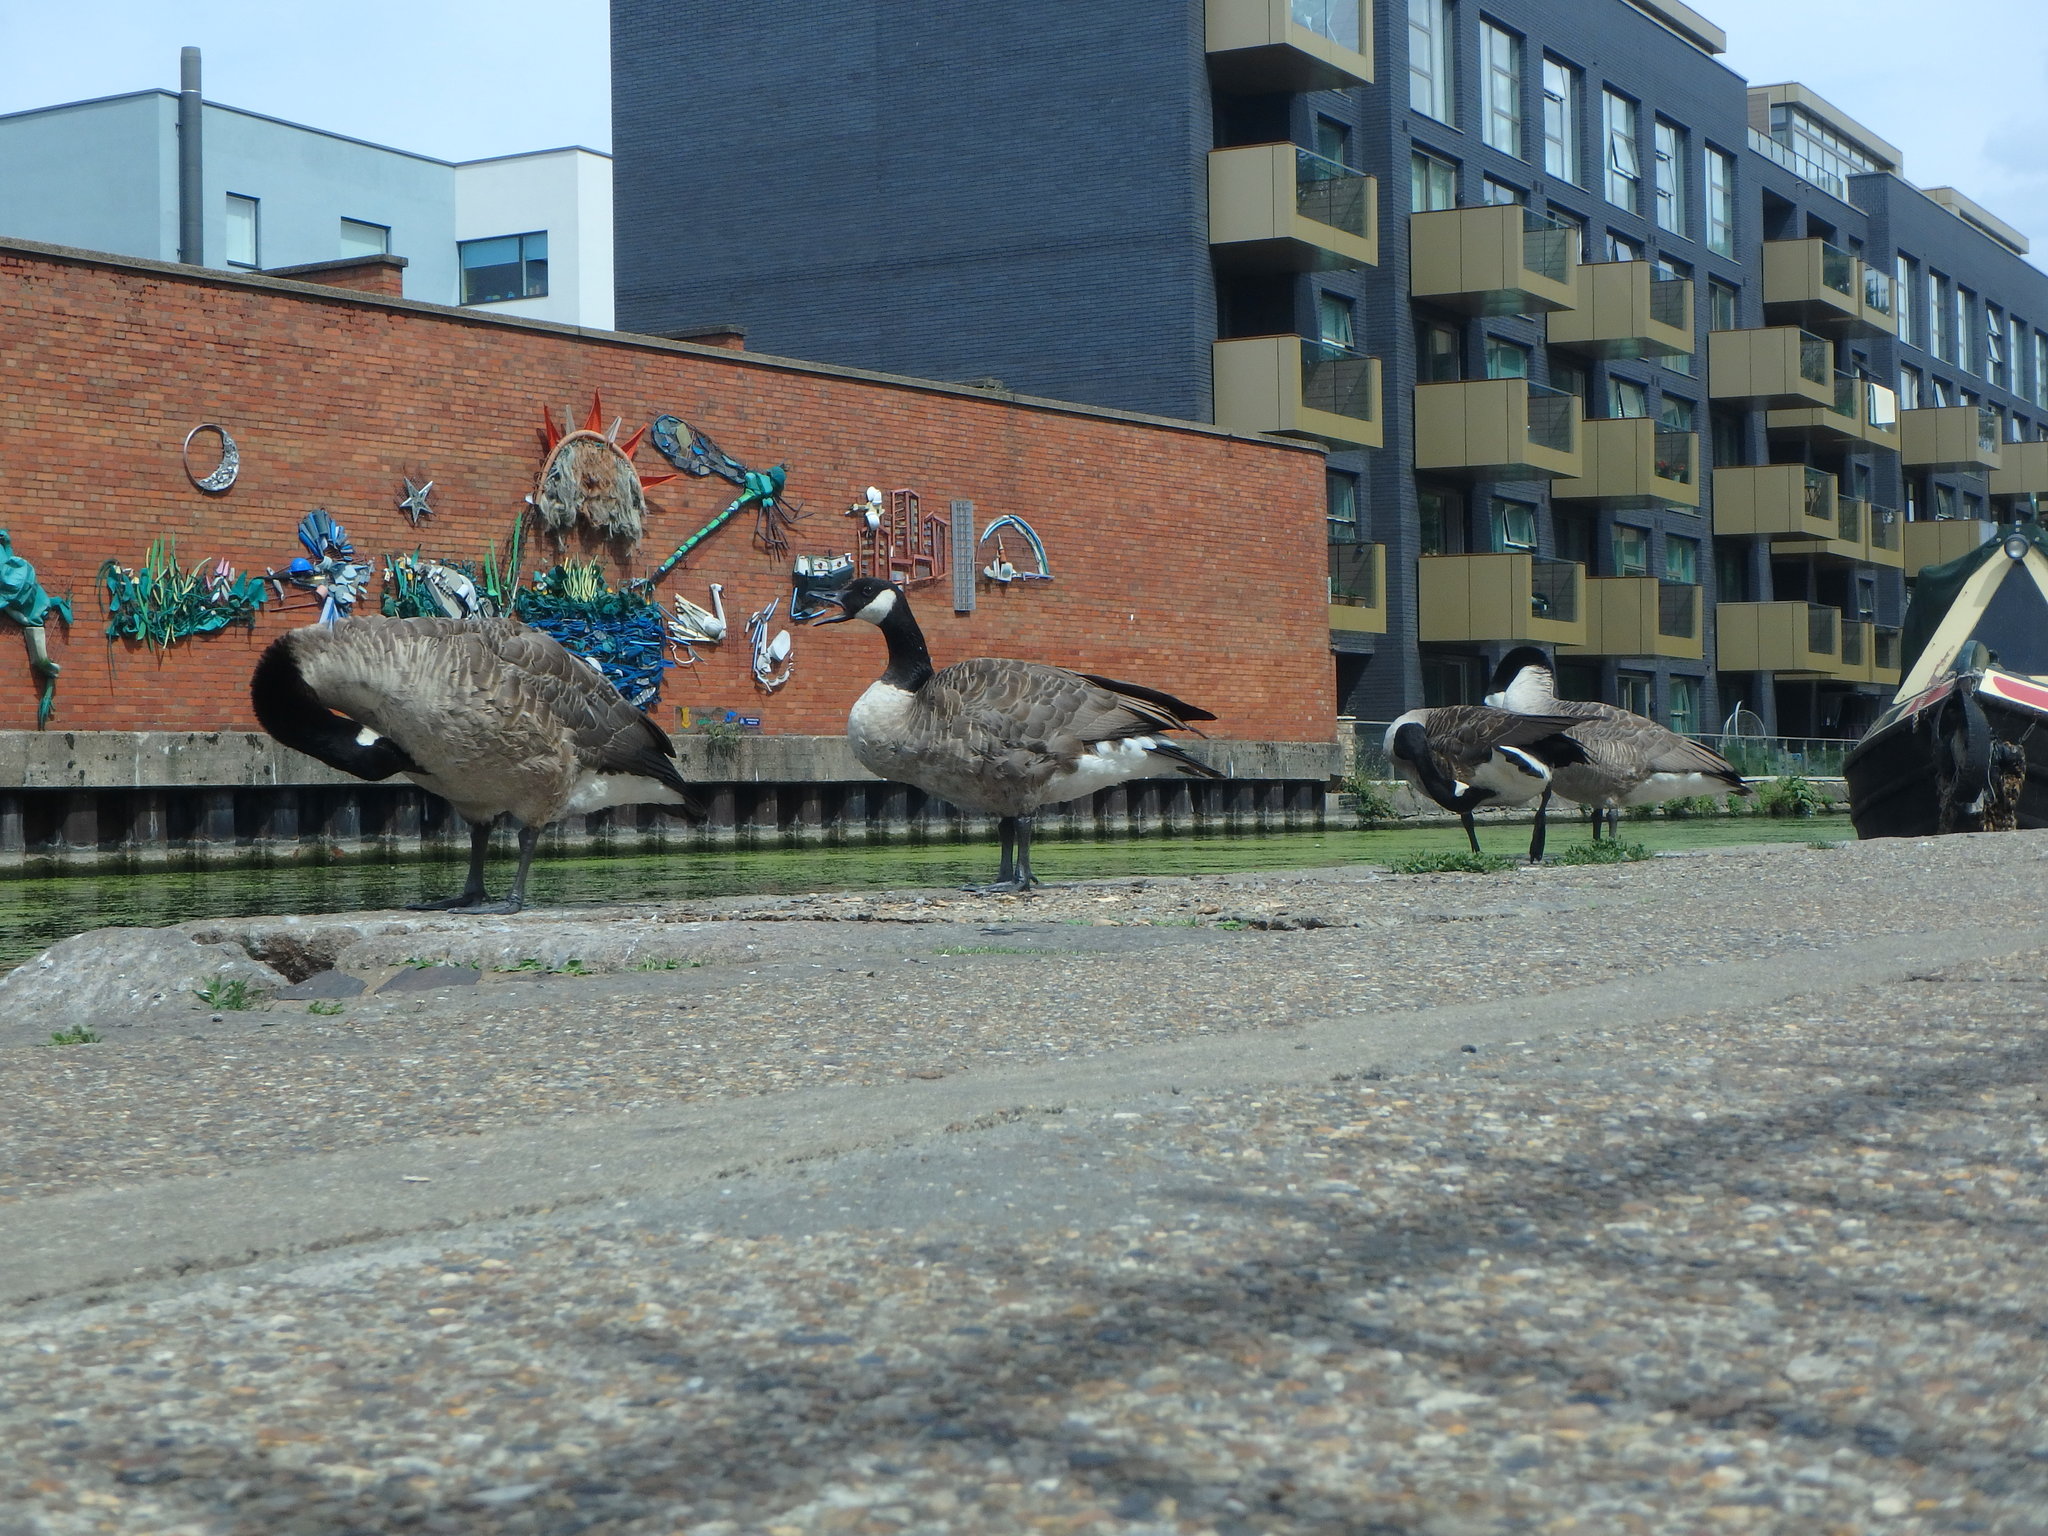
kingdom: Animalia
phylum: Chordata
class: Aves
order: Anseriformes
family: Anatidae
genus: Branta
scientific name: Branta canadensis
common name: Canada goose
